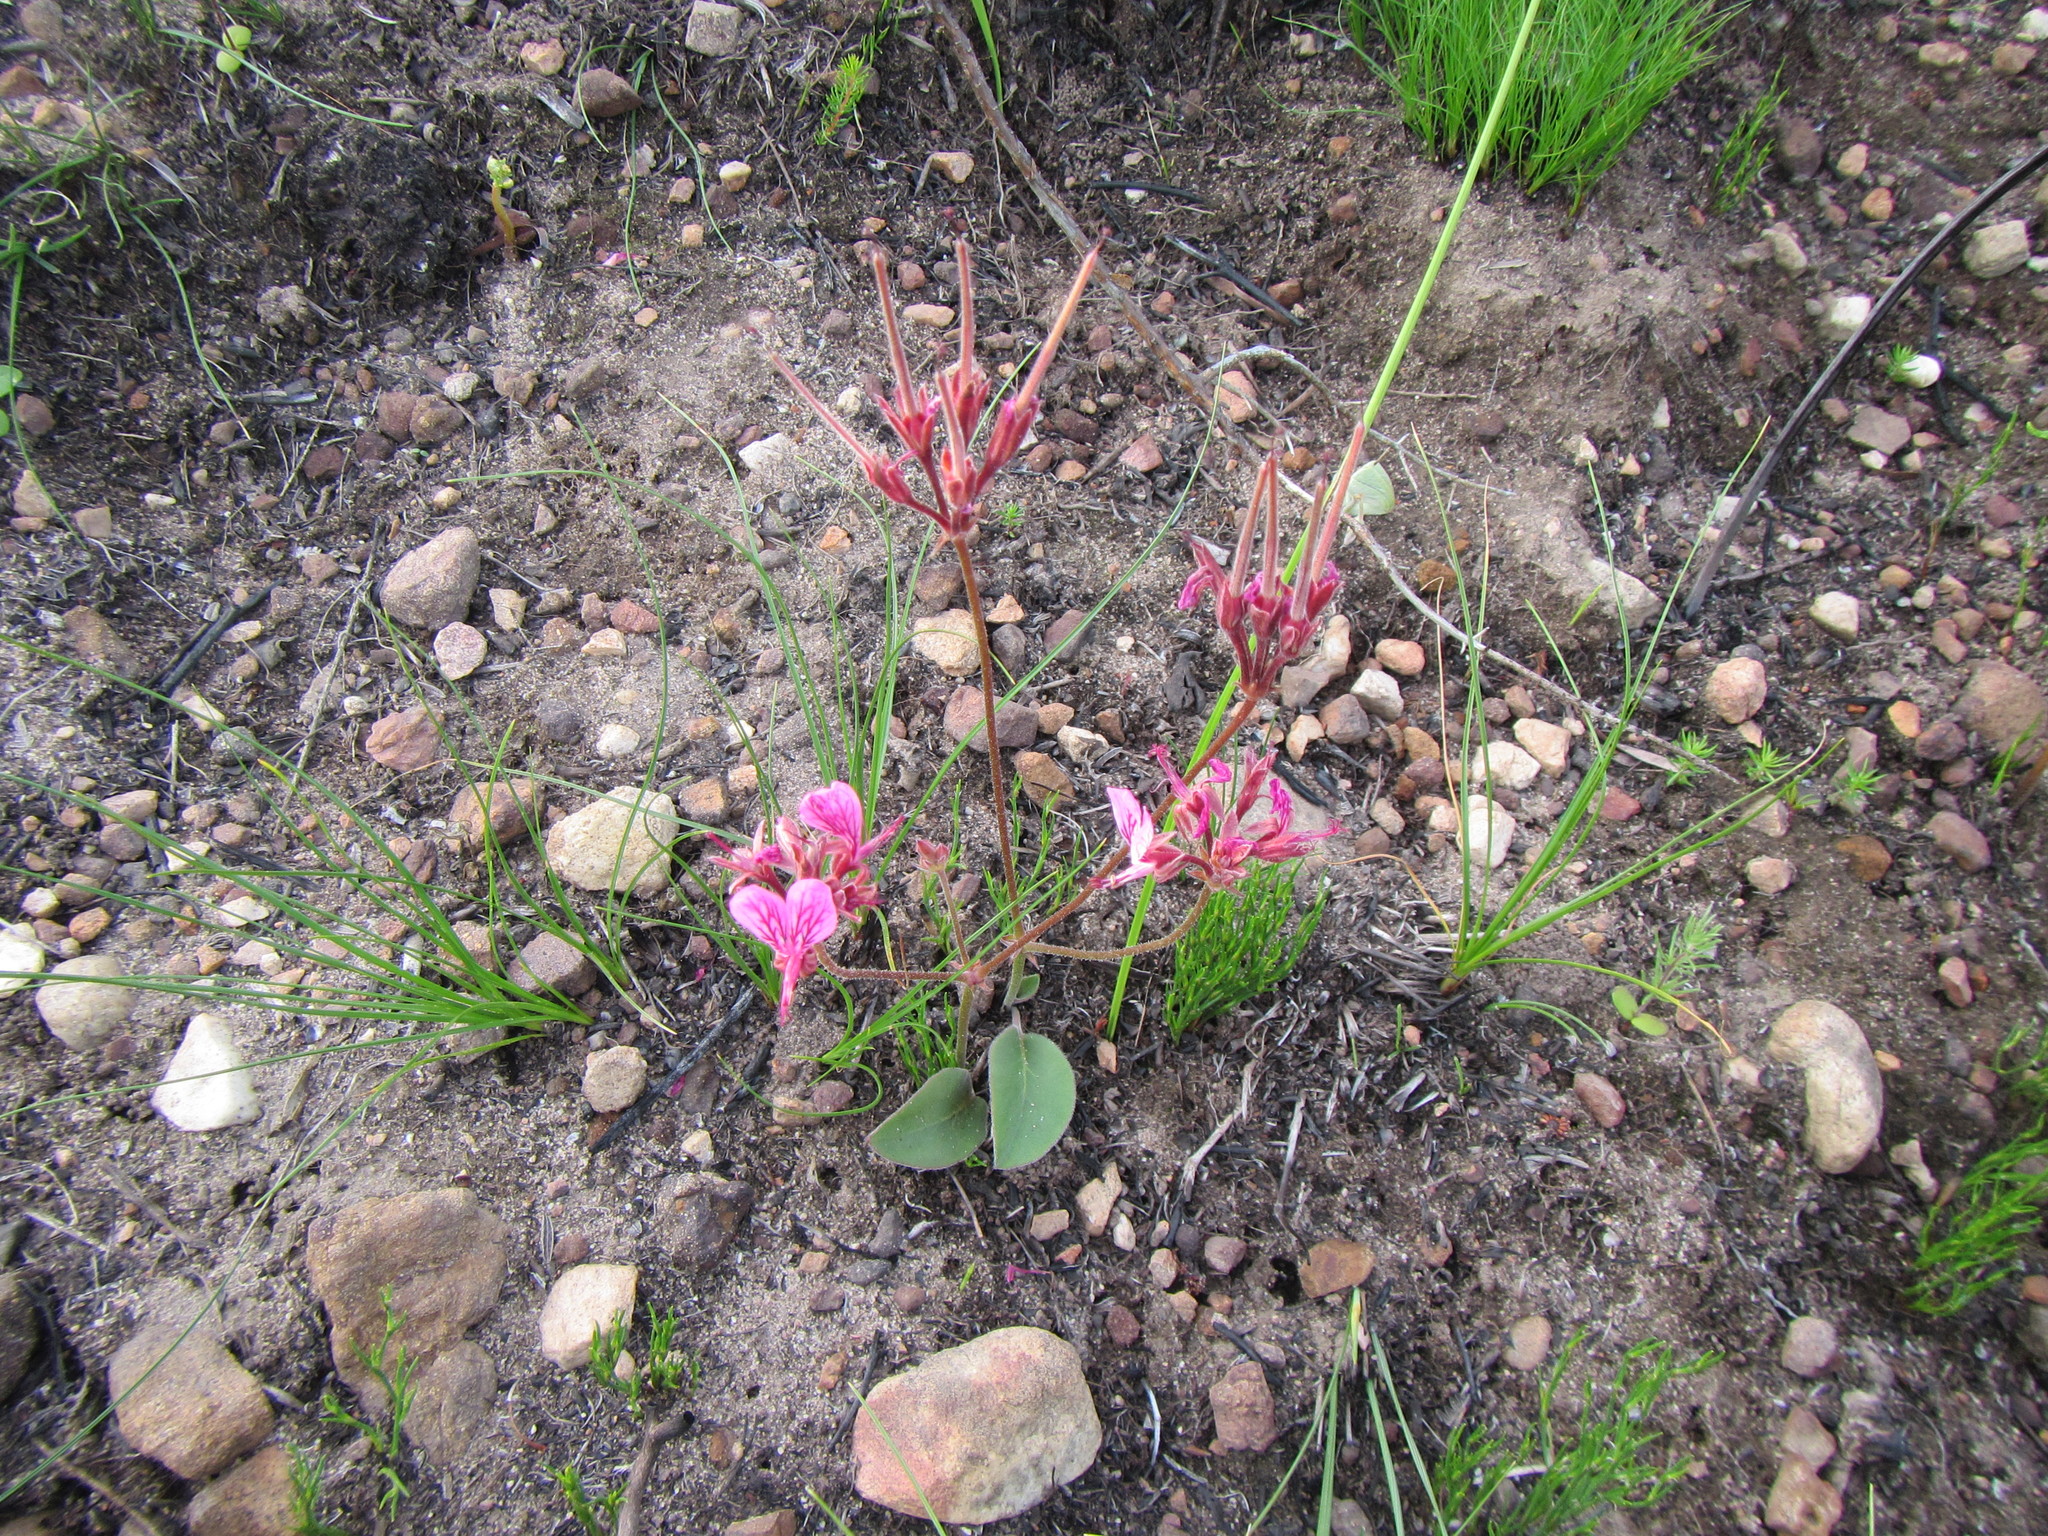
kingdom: Plantae
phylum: Tracheophyta
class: Magnoliopsida
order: Geraniales
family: Geraniaceae
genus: Pelargonium
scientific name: Pelargonium dipetalum
